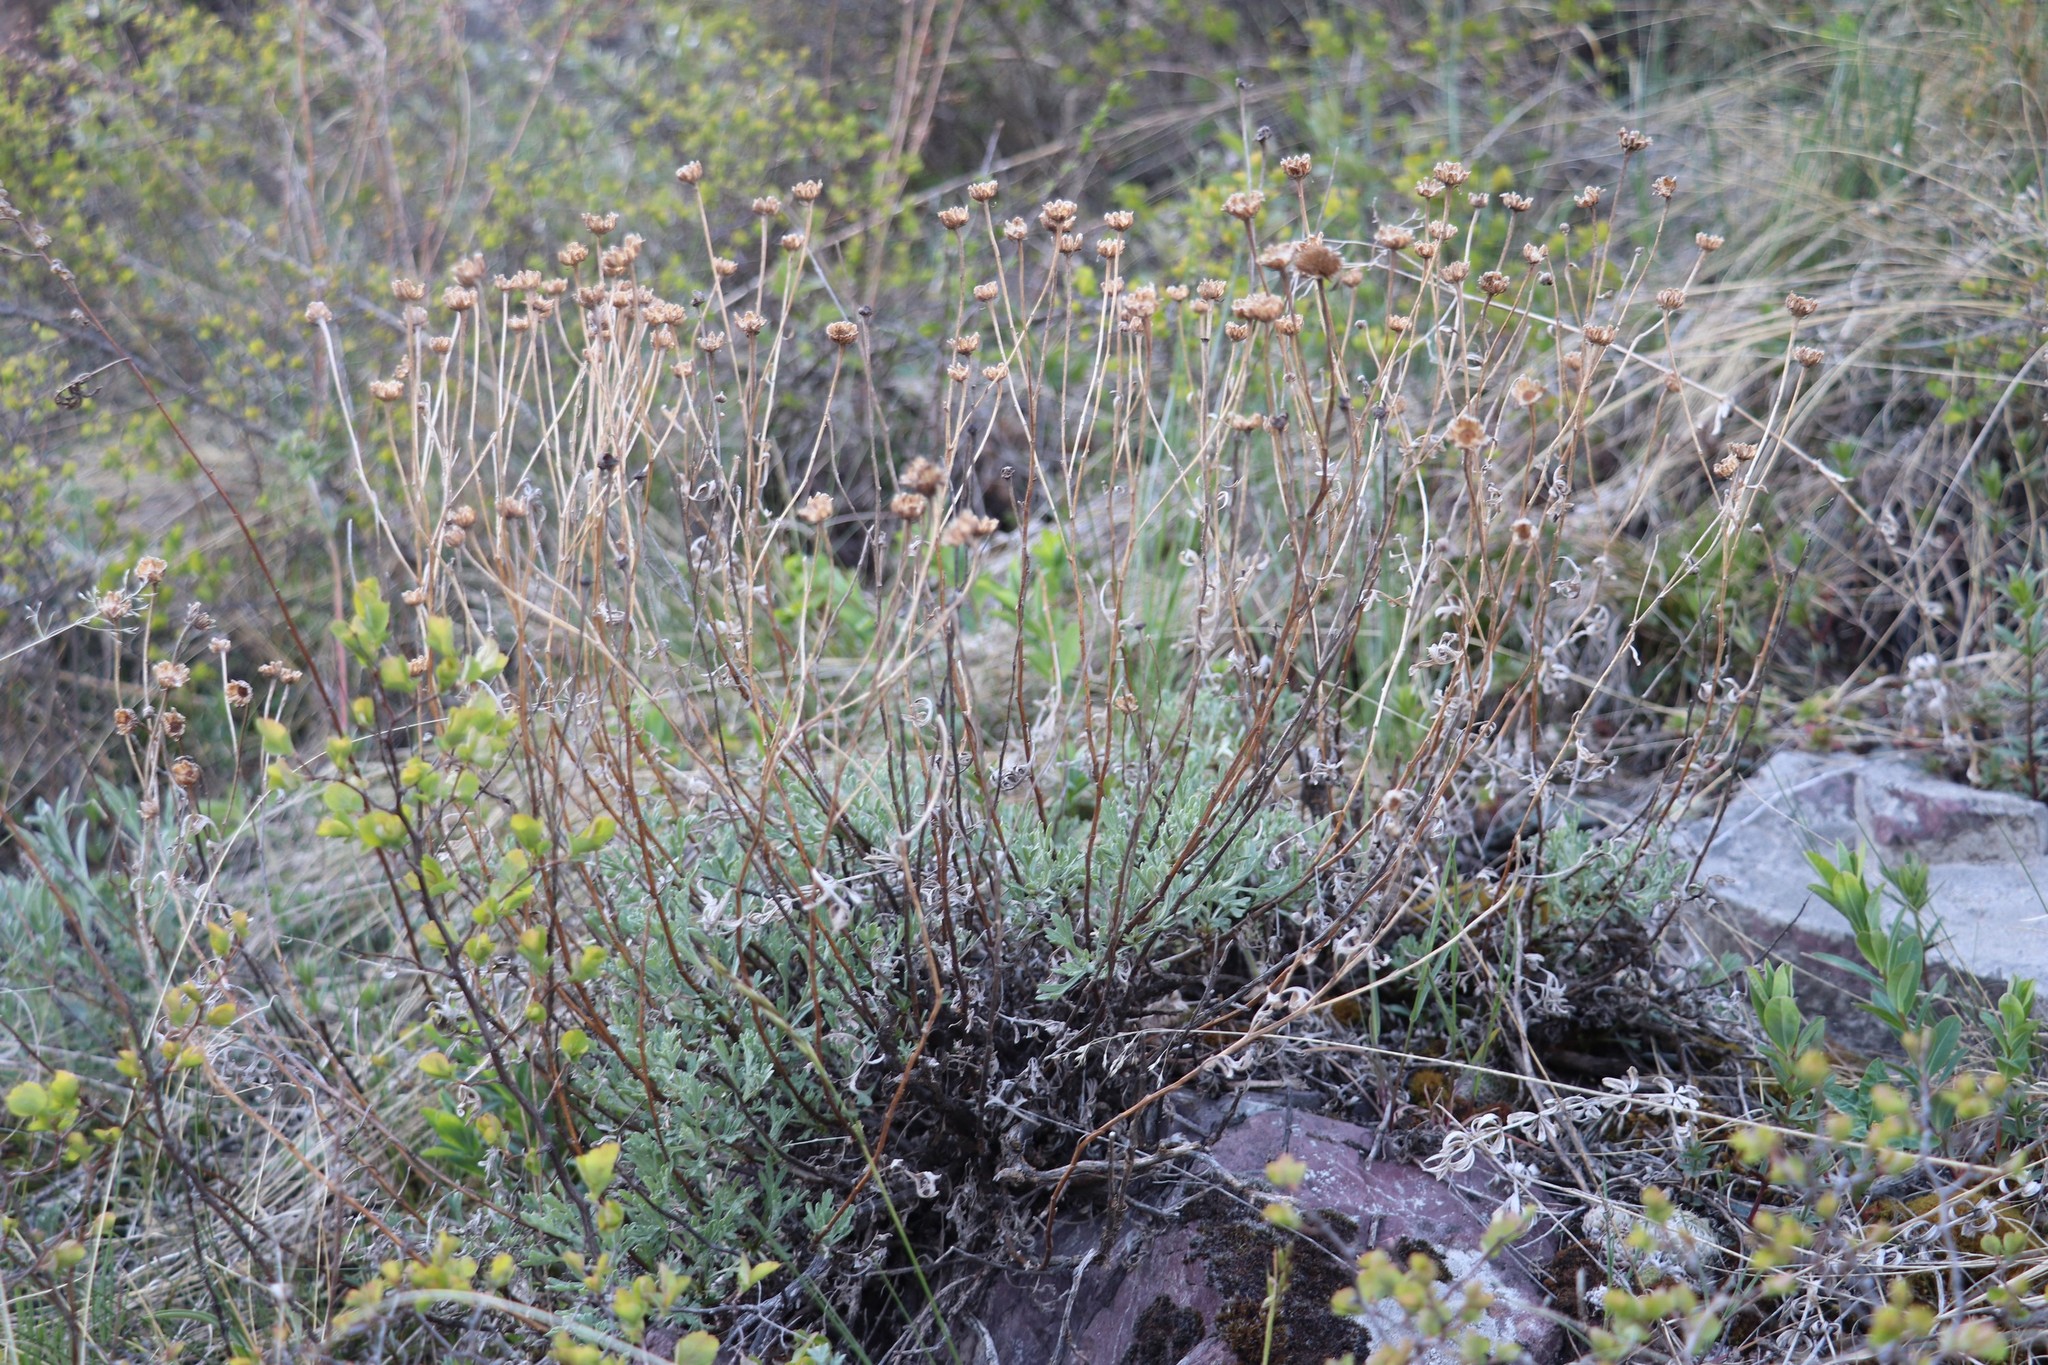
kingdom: Plantae
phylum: Tracheophyta
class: Magnoliopsida
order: Asterales
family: Asteraceae
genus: Chrysanthemum
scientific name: Chrysanthemum sinuatum
